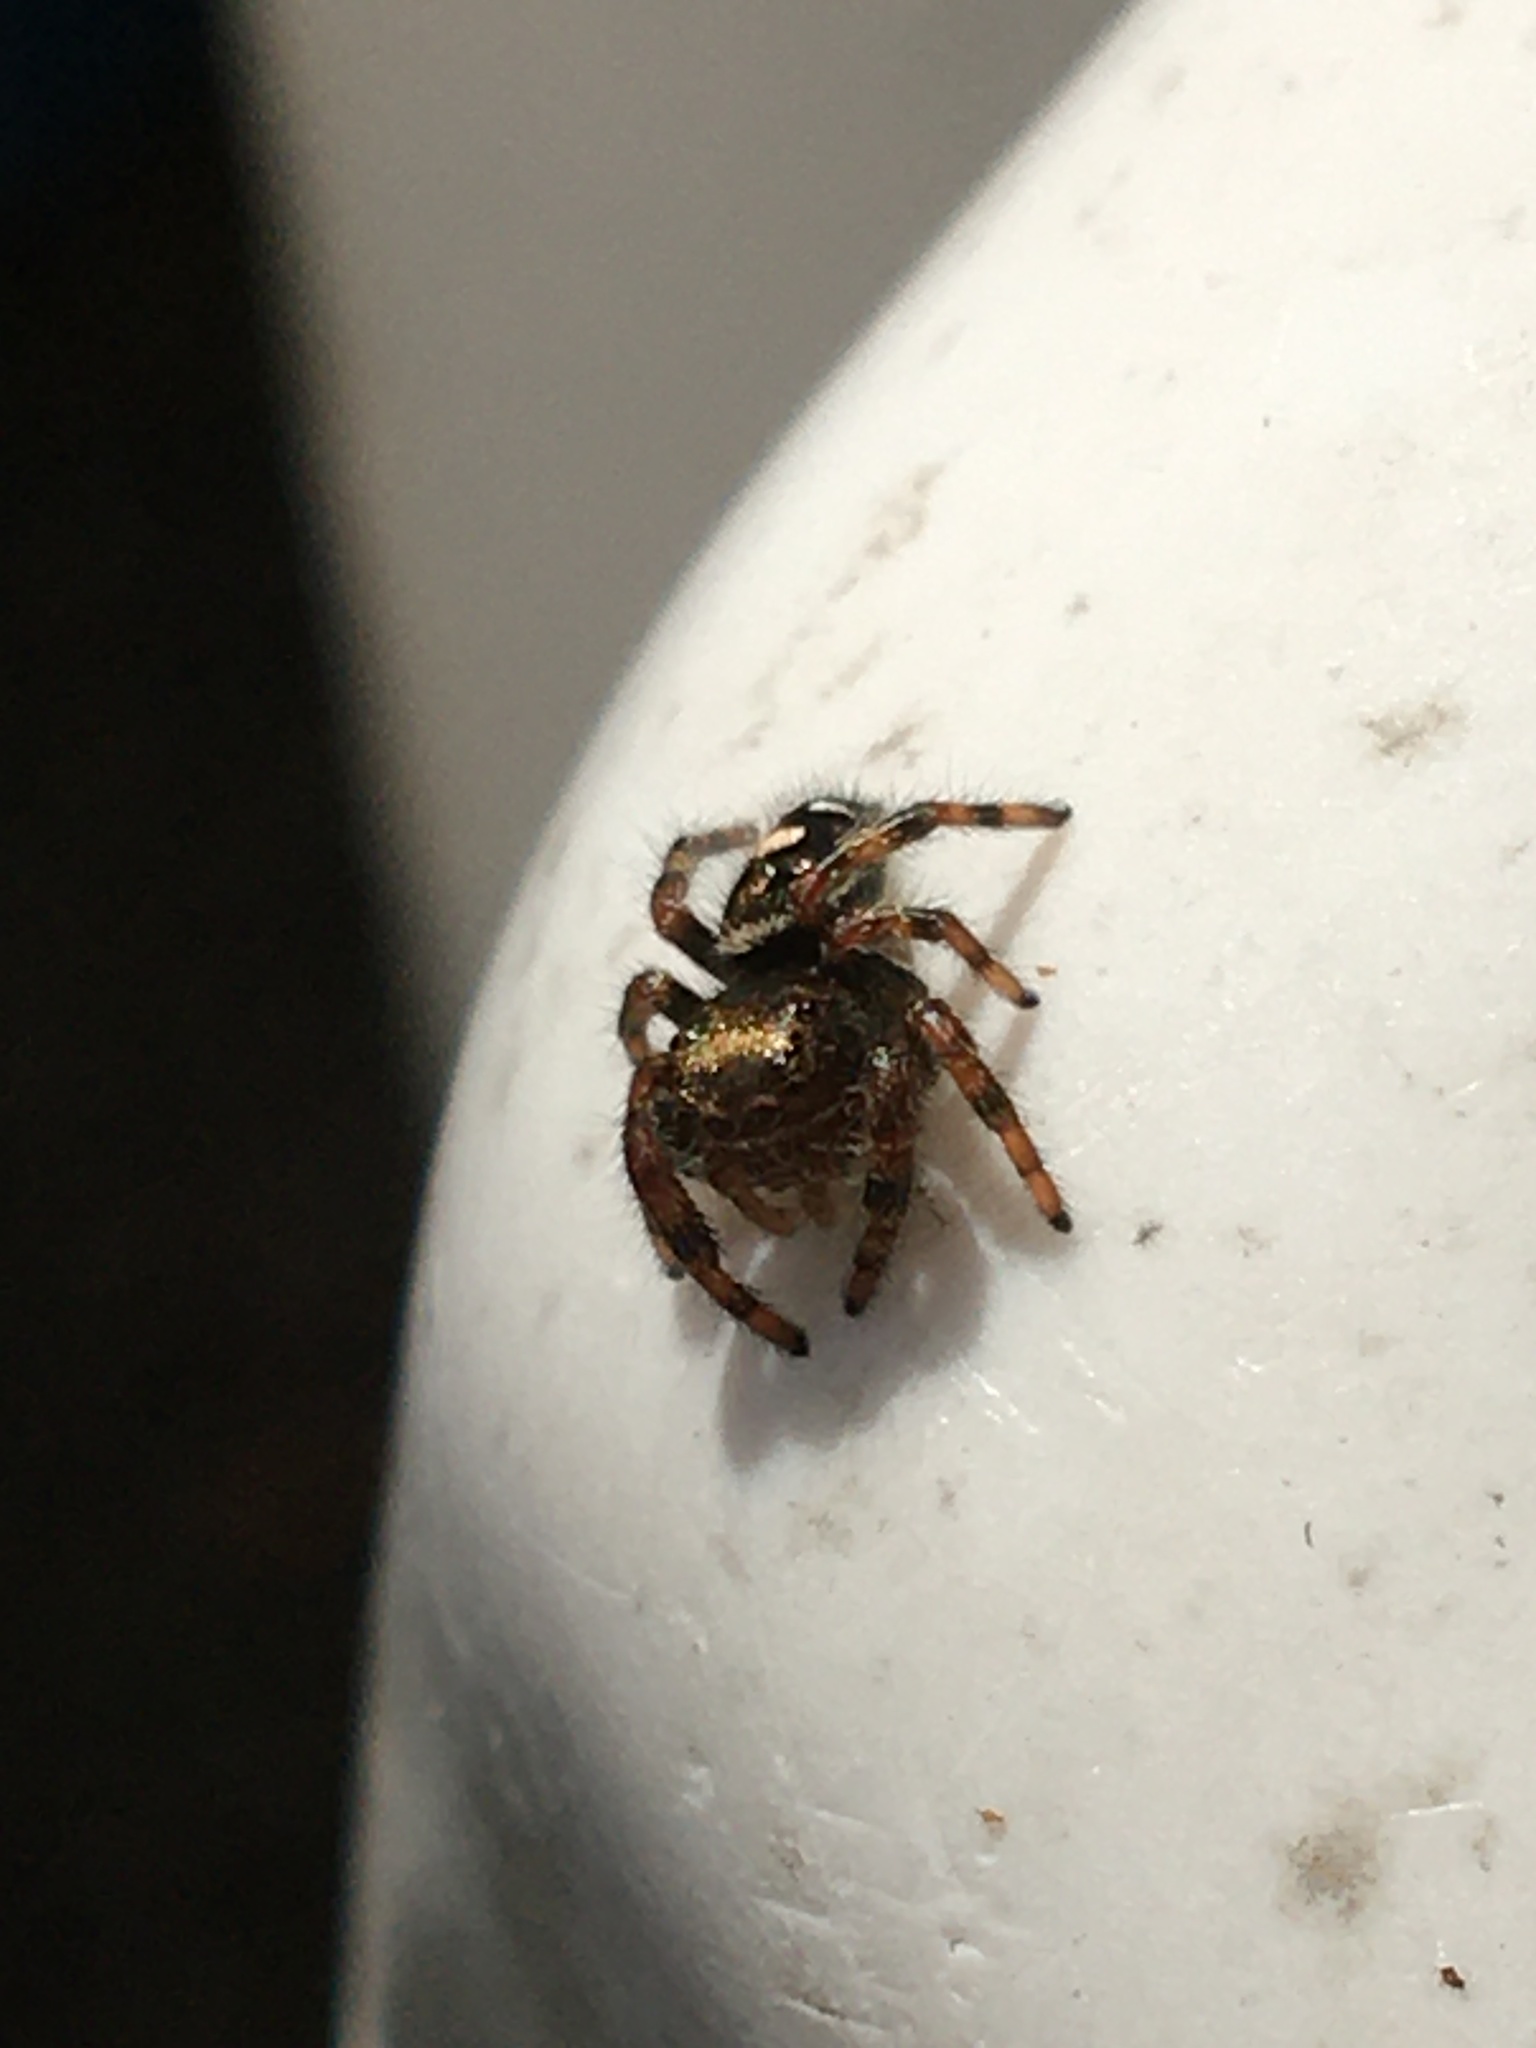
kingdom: Animalia
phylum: Arthropoda
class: Arachnida
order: Araneae
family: Salticidae
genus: Phidippus
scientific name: Phidippus audax
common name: Bold jumper
